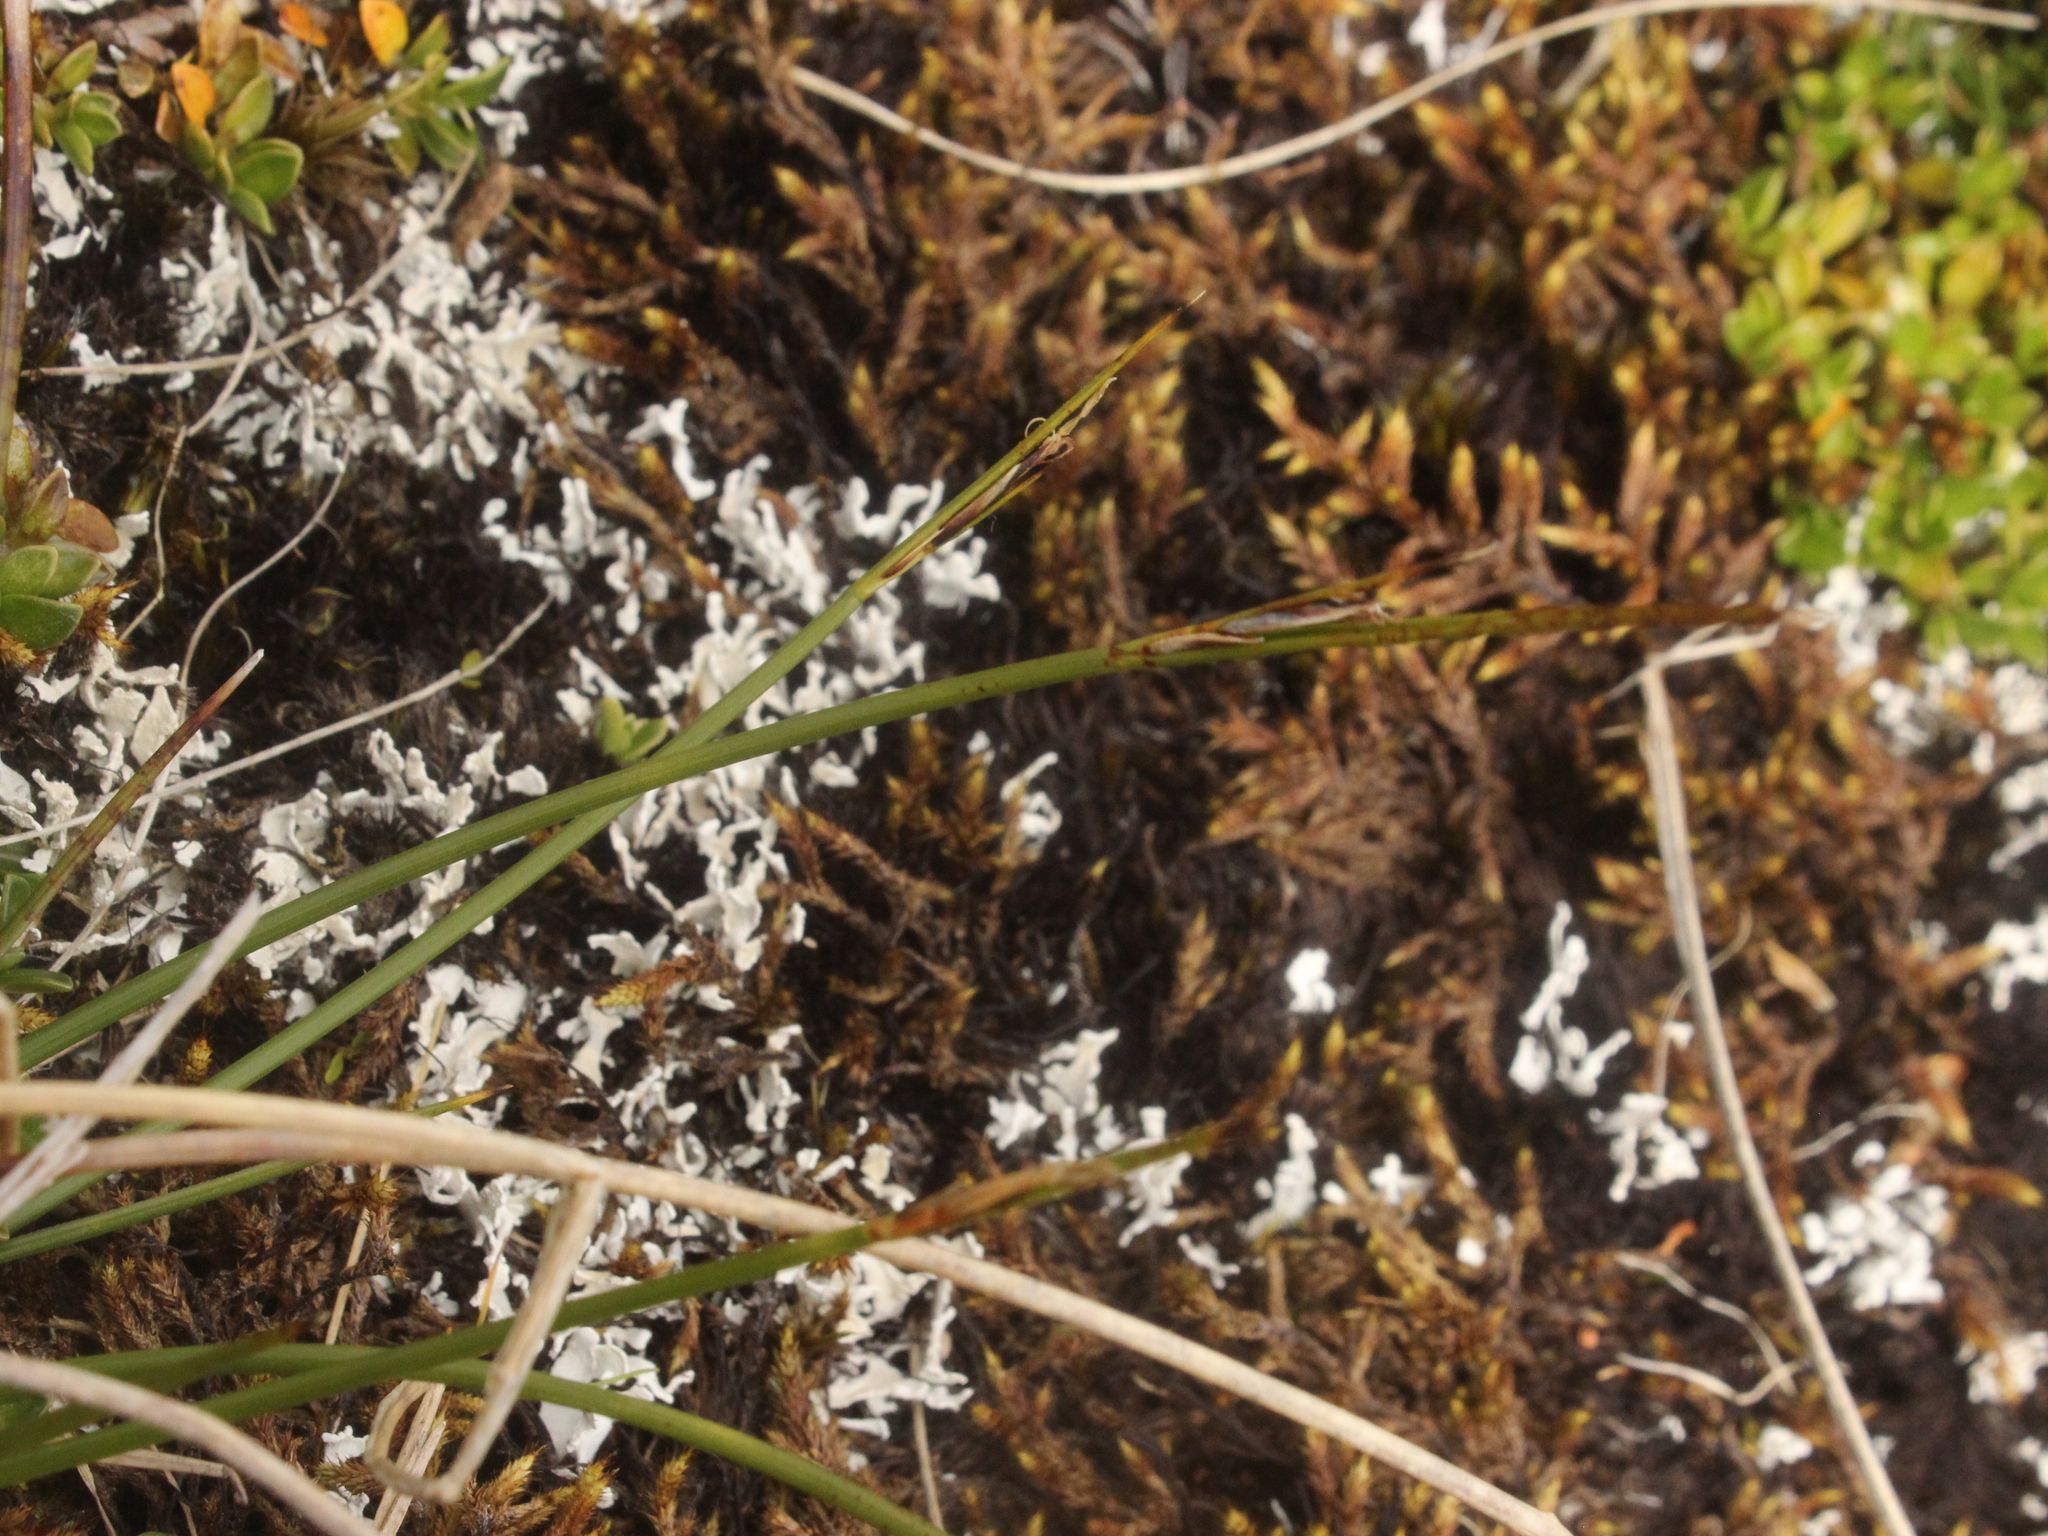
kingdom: Plantae
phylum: Tracheophyta
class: Liliopsida
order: Poales
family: Cyperaceae
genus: Schoenus
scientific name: Schoenus pauciflorus
